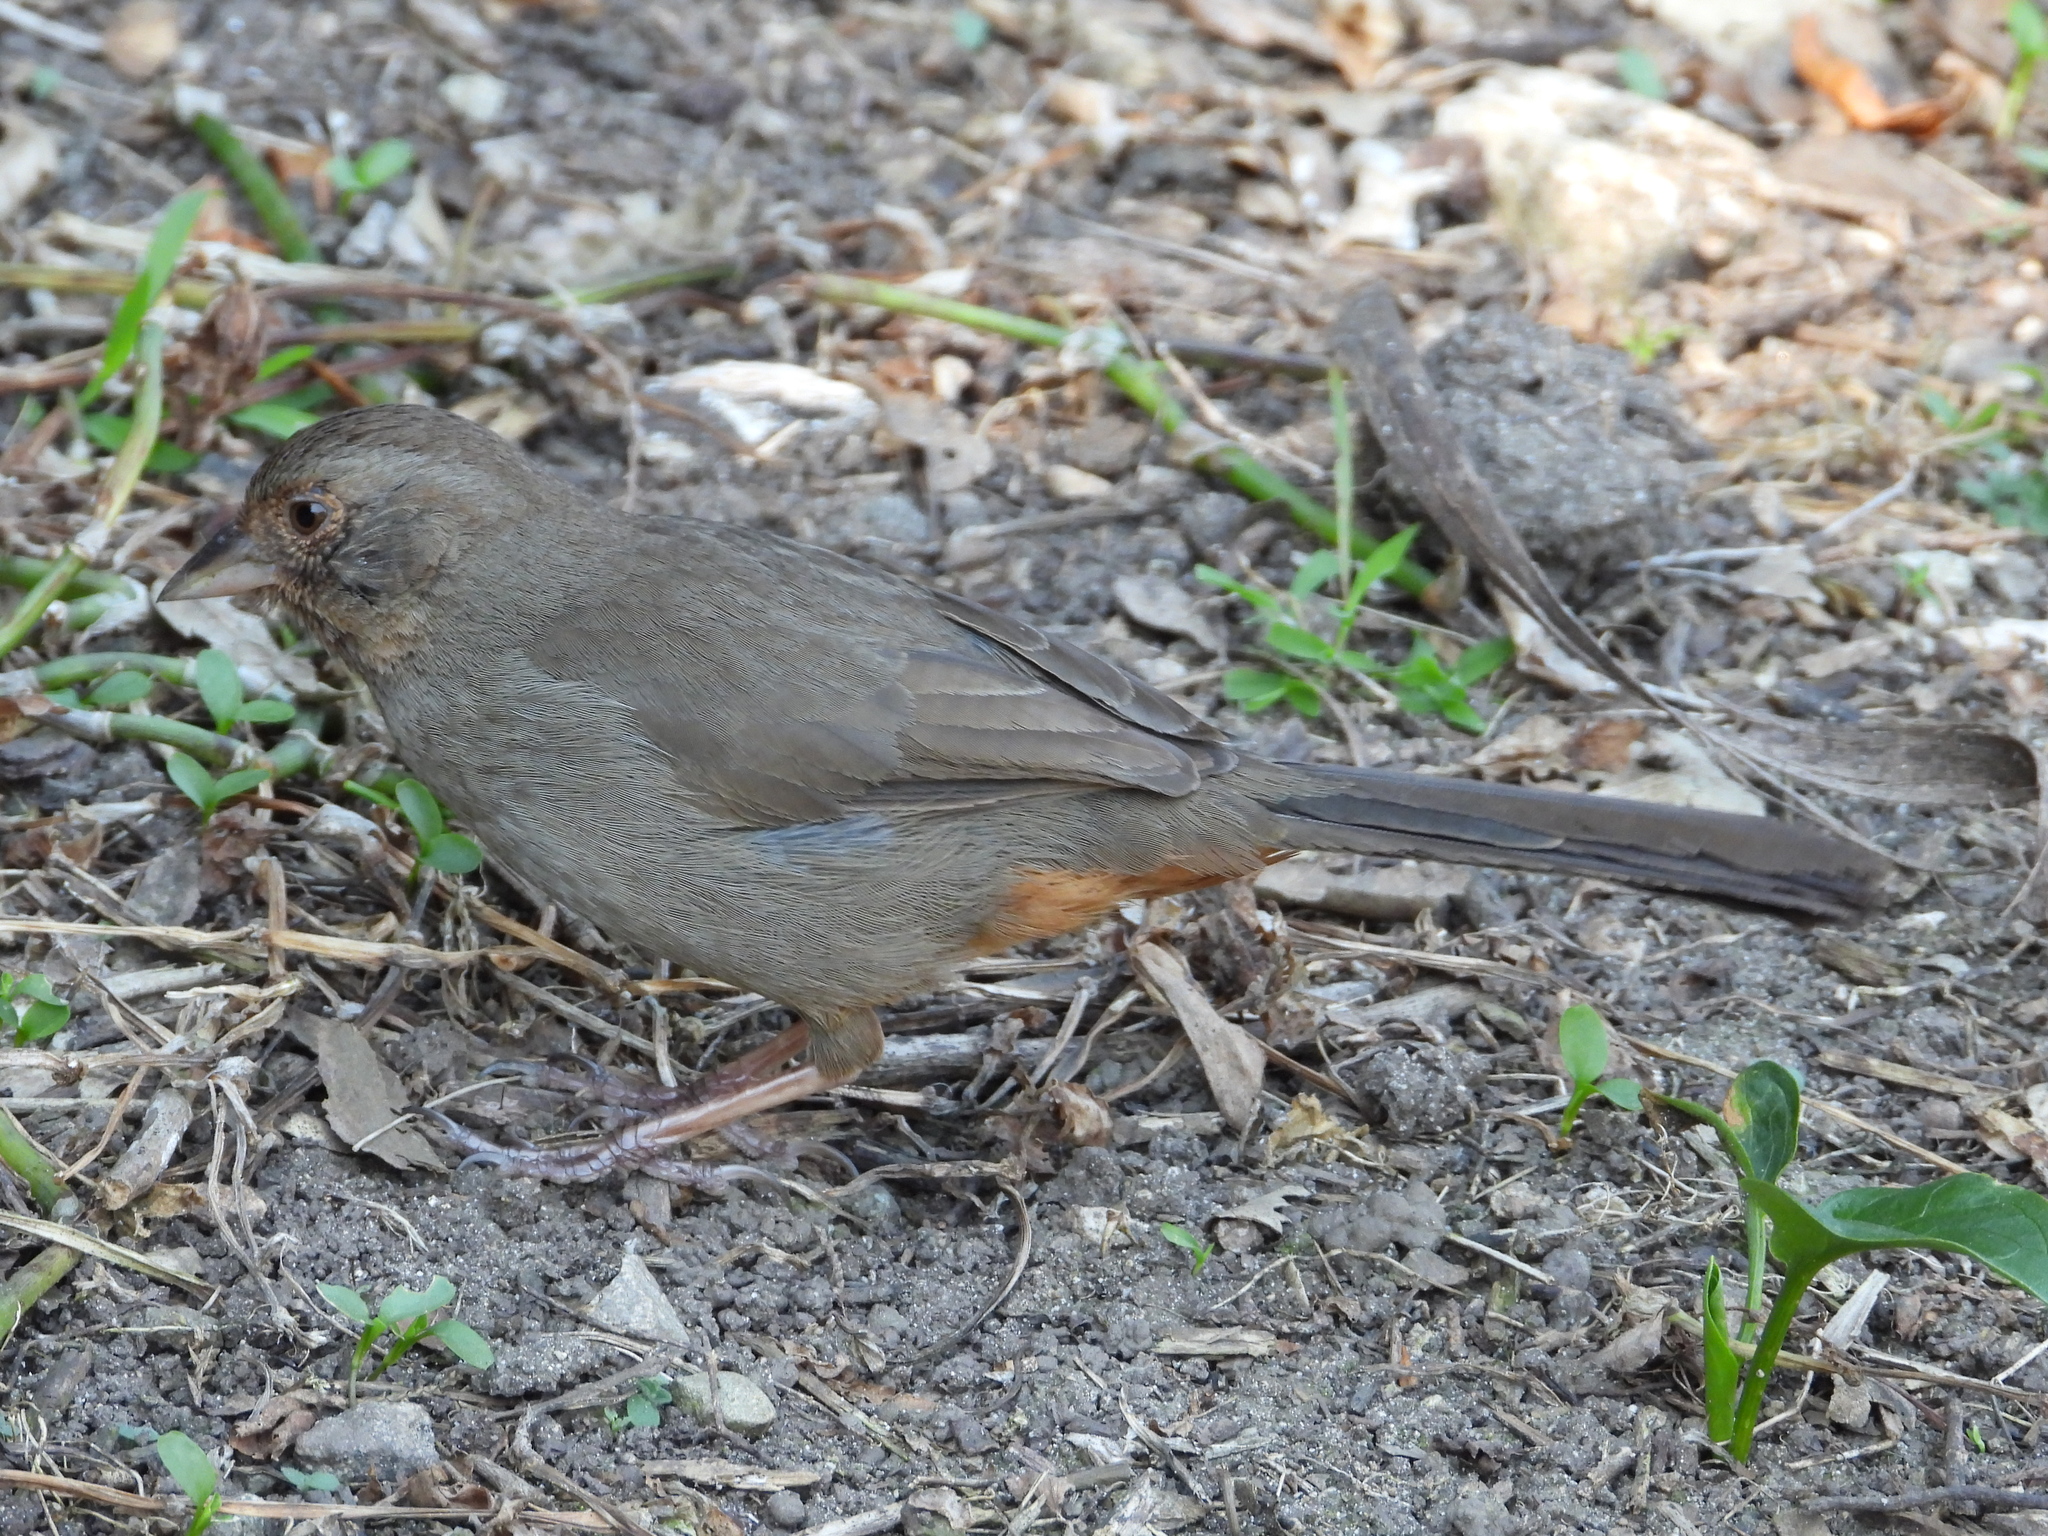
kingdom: Animalia
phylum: Chordata
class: Aves
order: Passeriformes
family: Passerellidae
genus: Melozone
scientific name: Melozone crissalis
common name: California towhee
